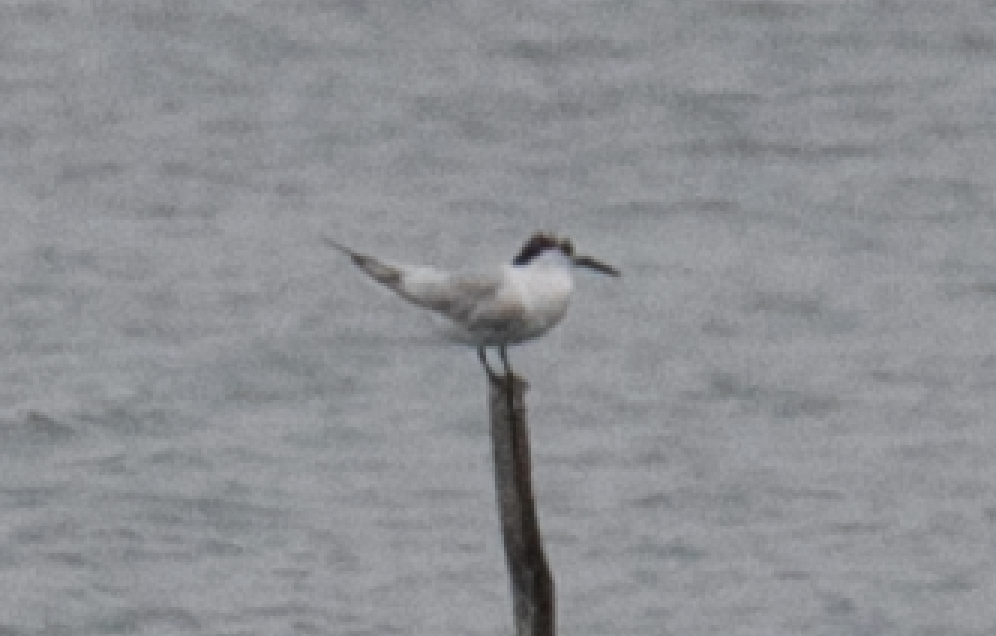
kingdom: Animalia
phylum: Chordata
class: Aves
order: Charadriiformes
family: Laridae
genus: Thalasseus
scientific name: Thalasseus sandvicensis
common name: Sandwich tern
